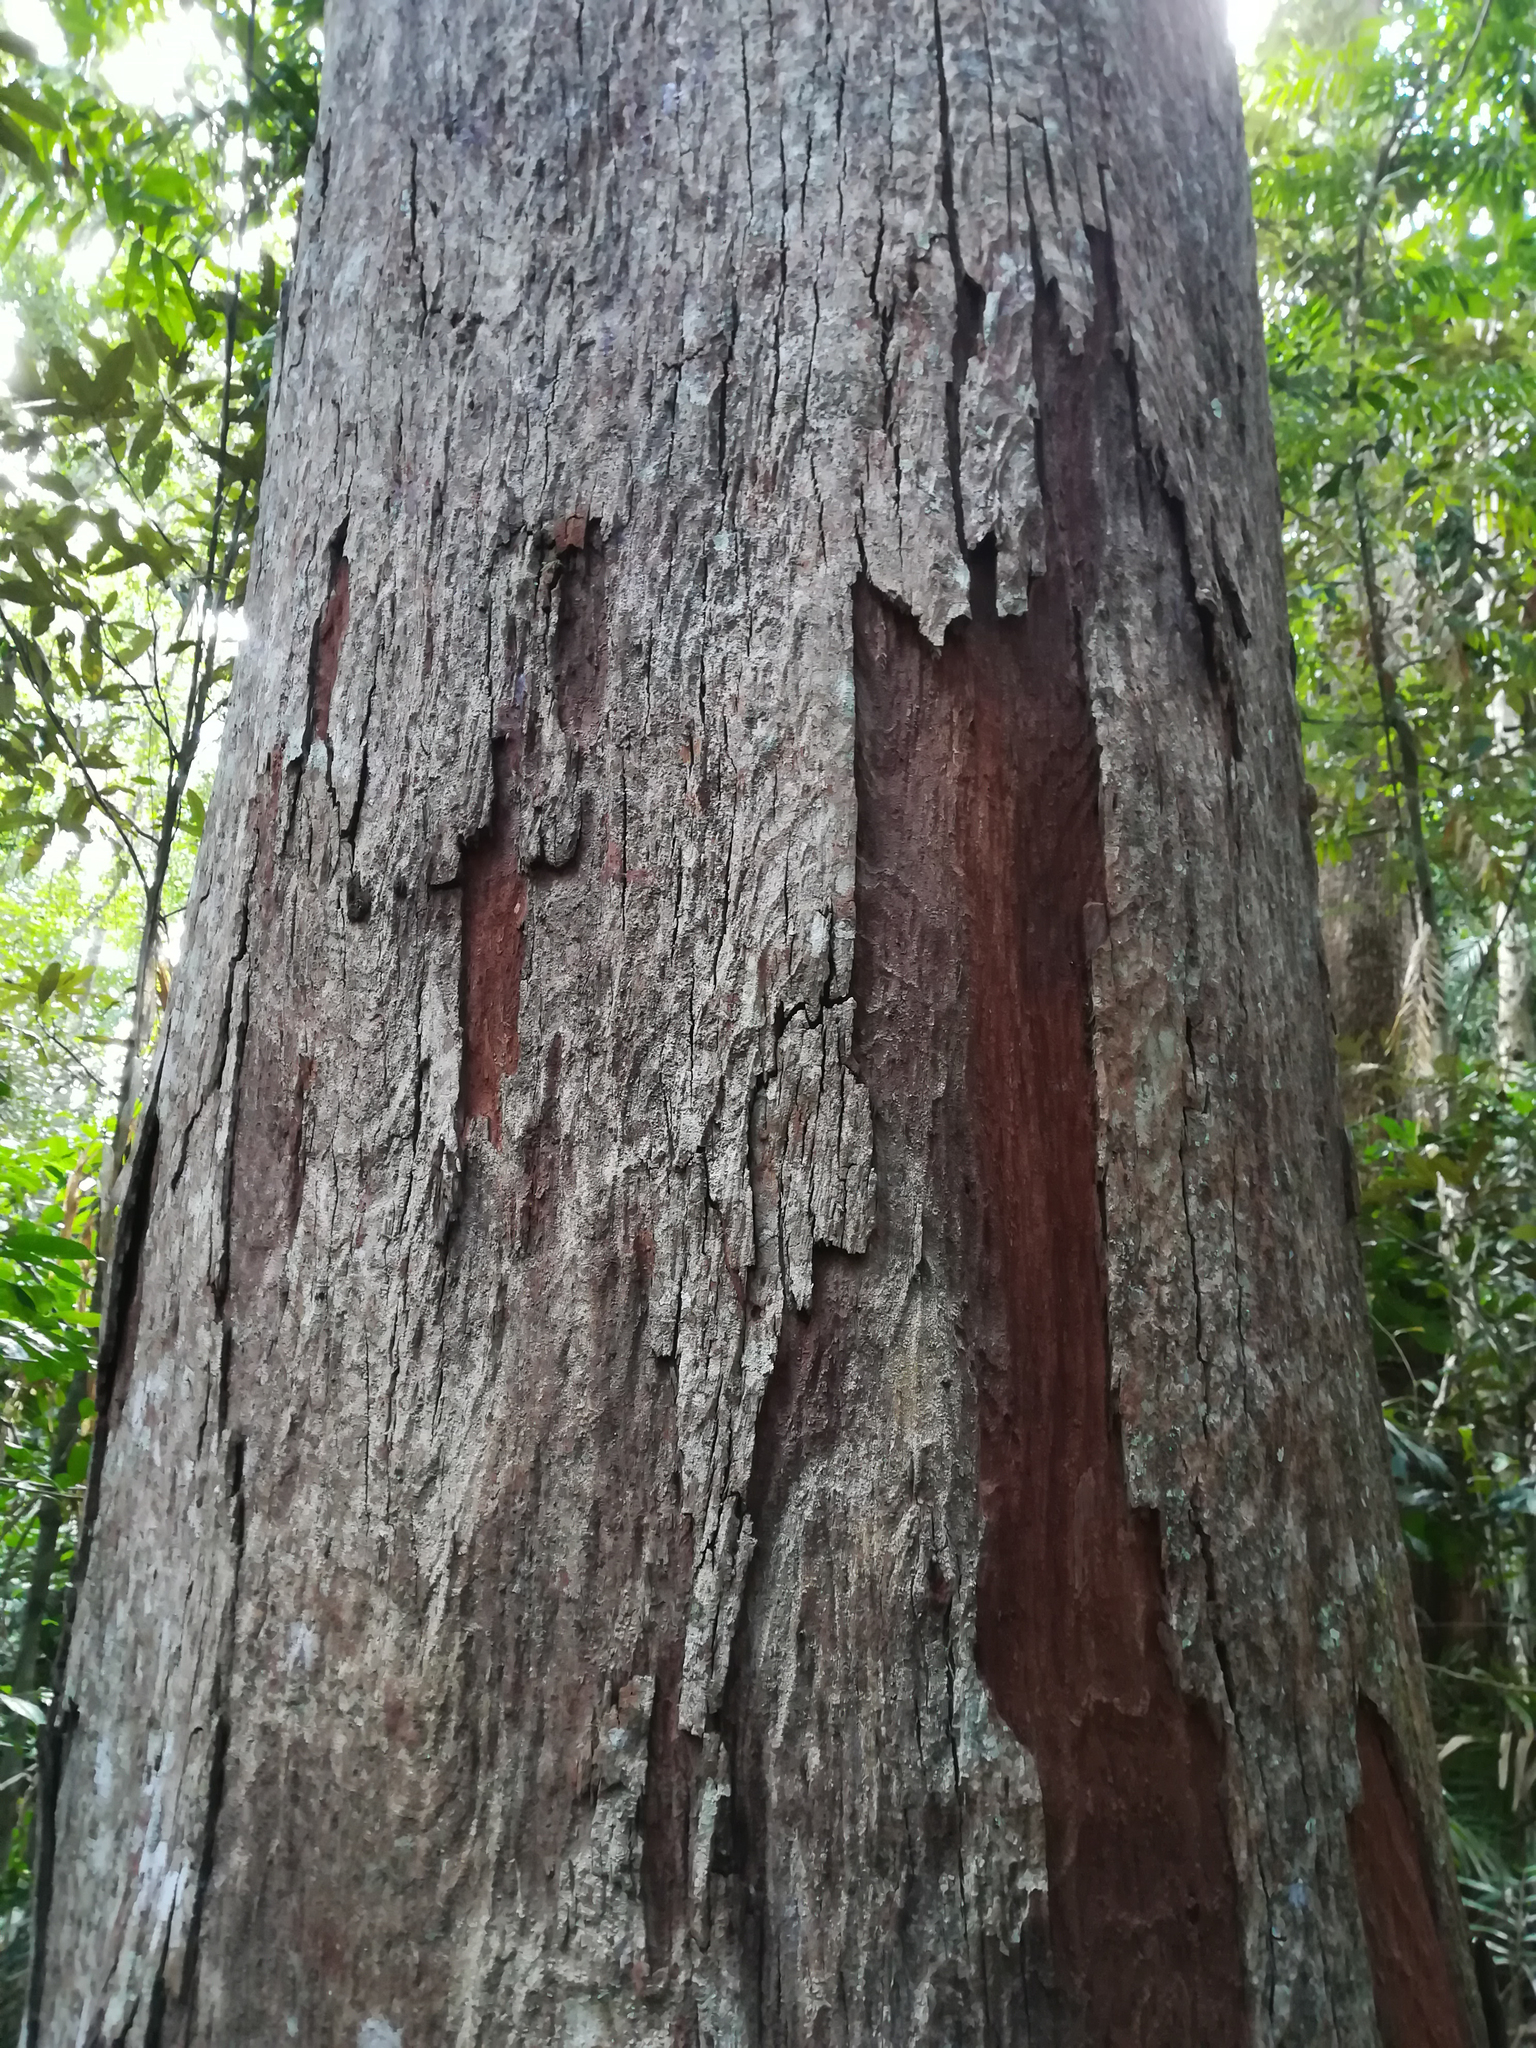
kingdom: Plantae
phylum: Tracheophyta
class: Magnoliopsida
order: Myrtales
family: Myrtaceae
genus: Syzygium
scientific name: Syzygium resa
